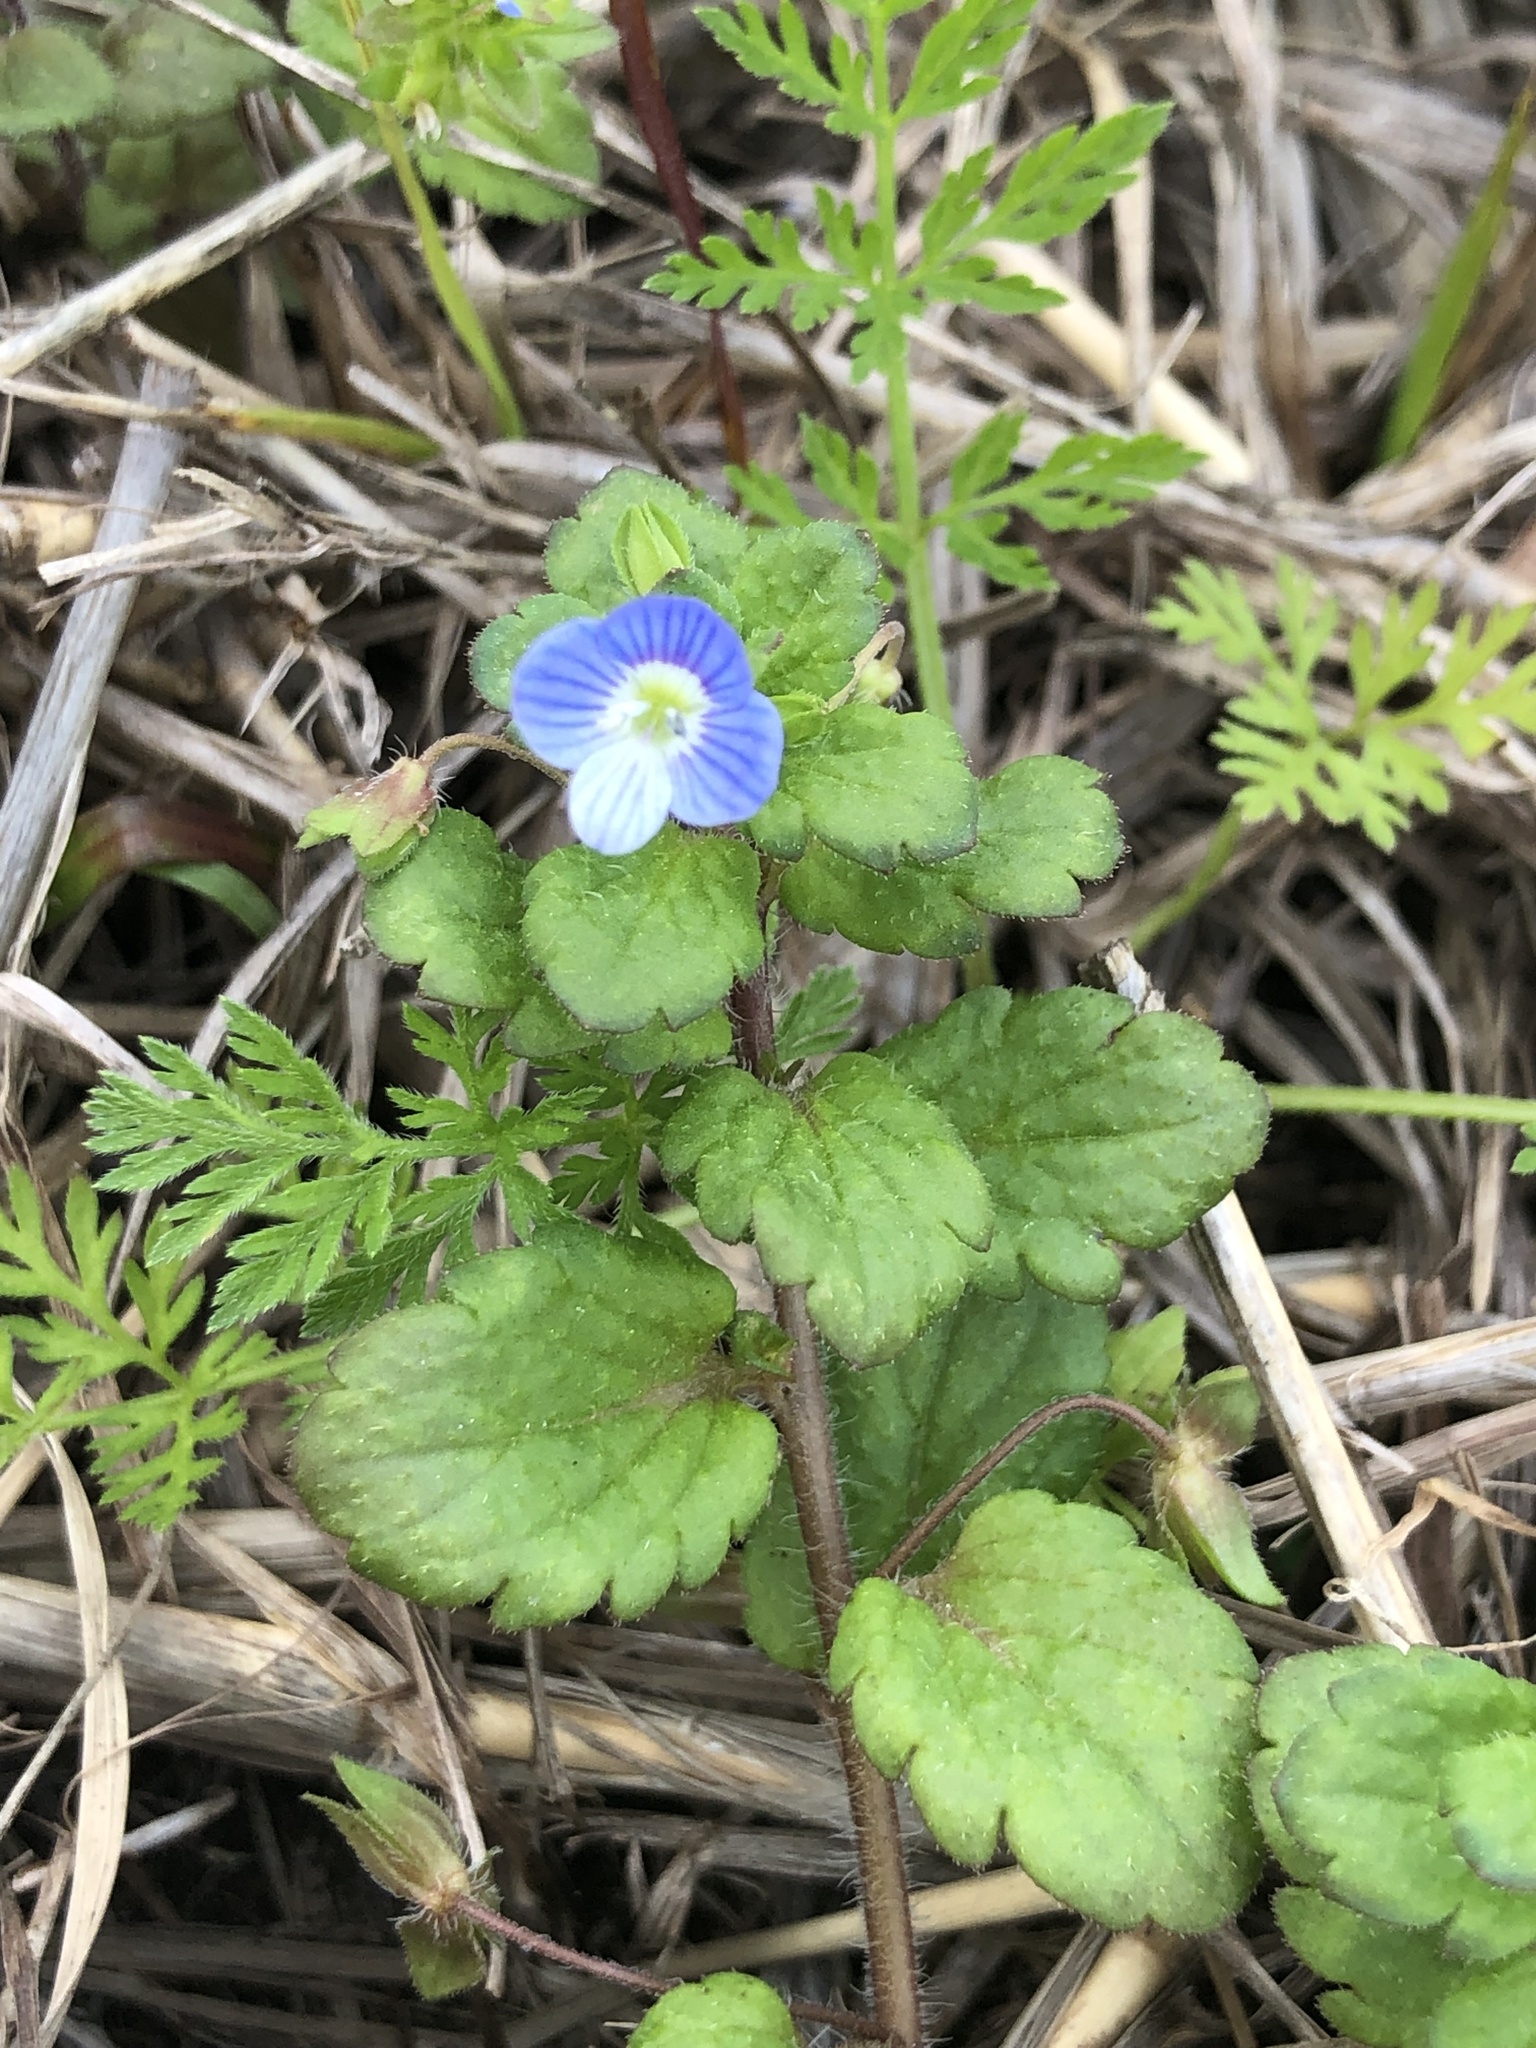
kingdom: Plantae
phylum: Tracheophyta
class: Magnoliopsida
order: Lamiales
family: Plantaginaceae
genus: Veronica
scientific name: Veronica persica
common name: Common field-speedwell
